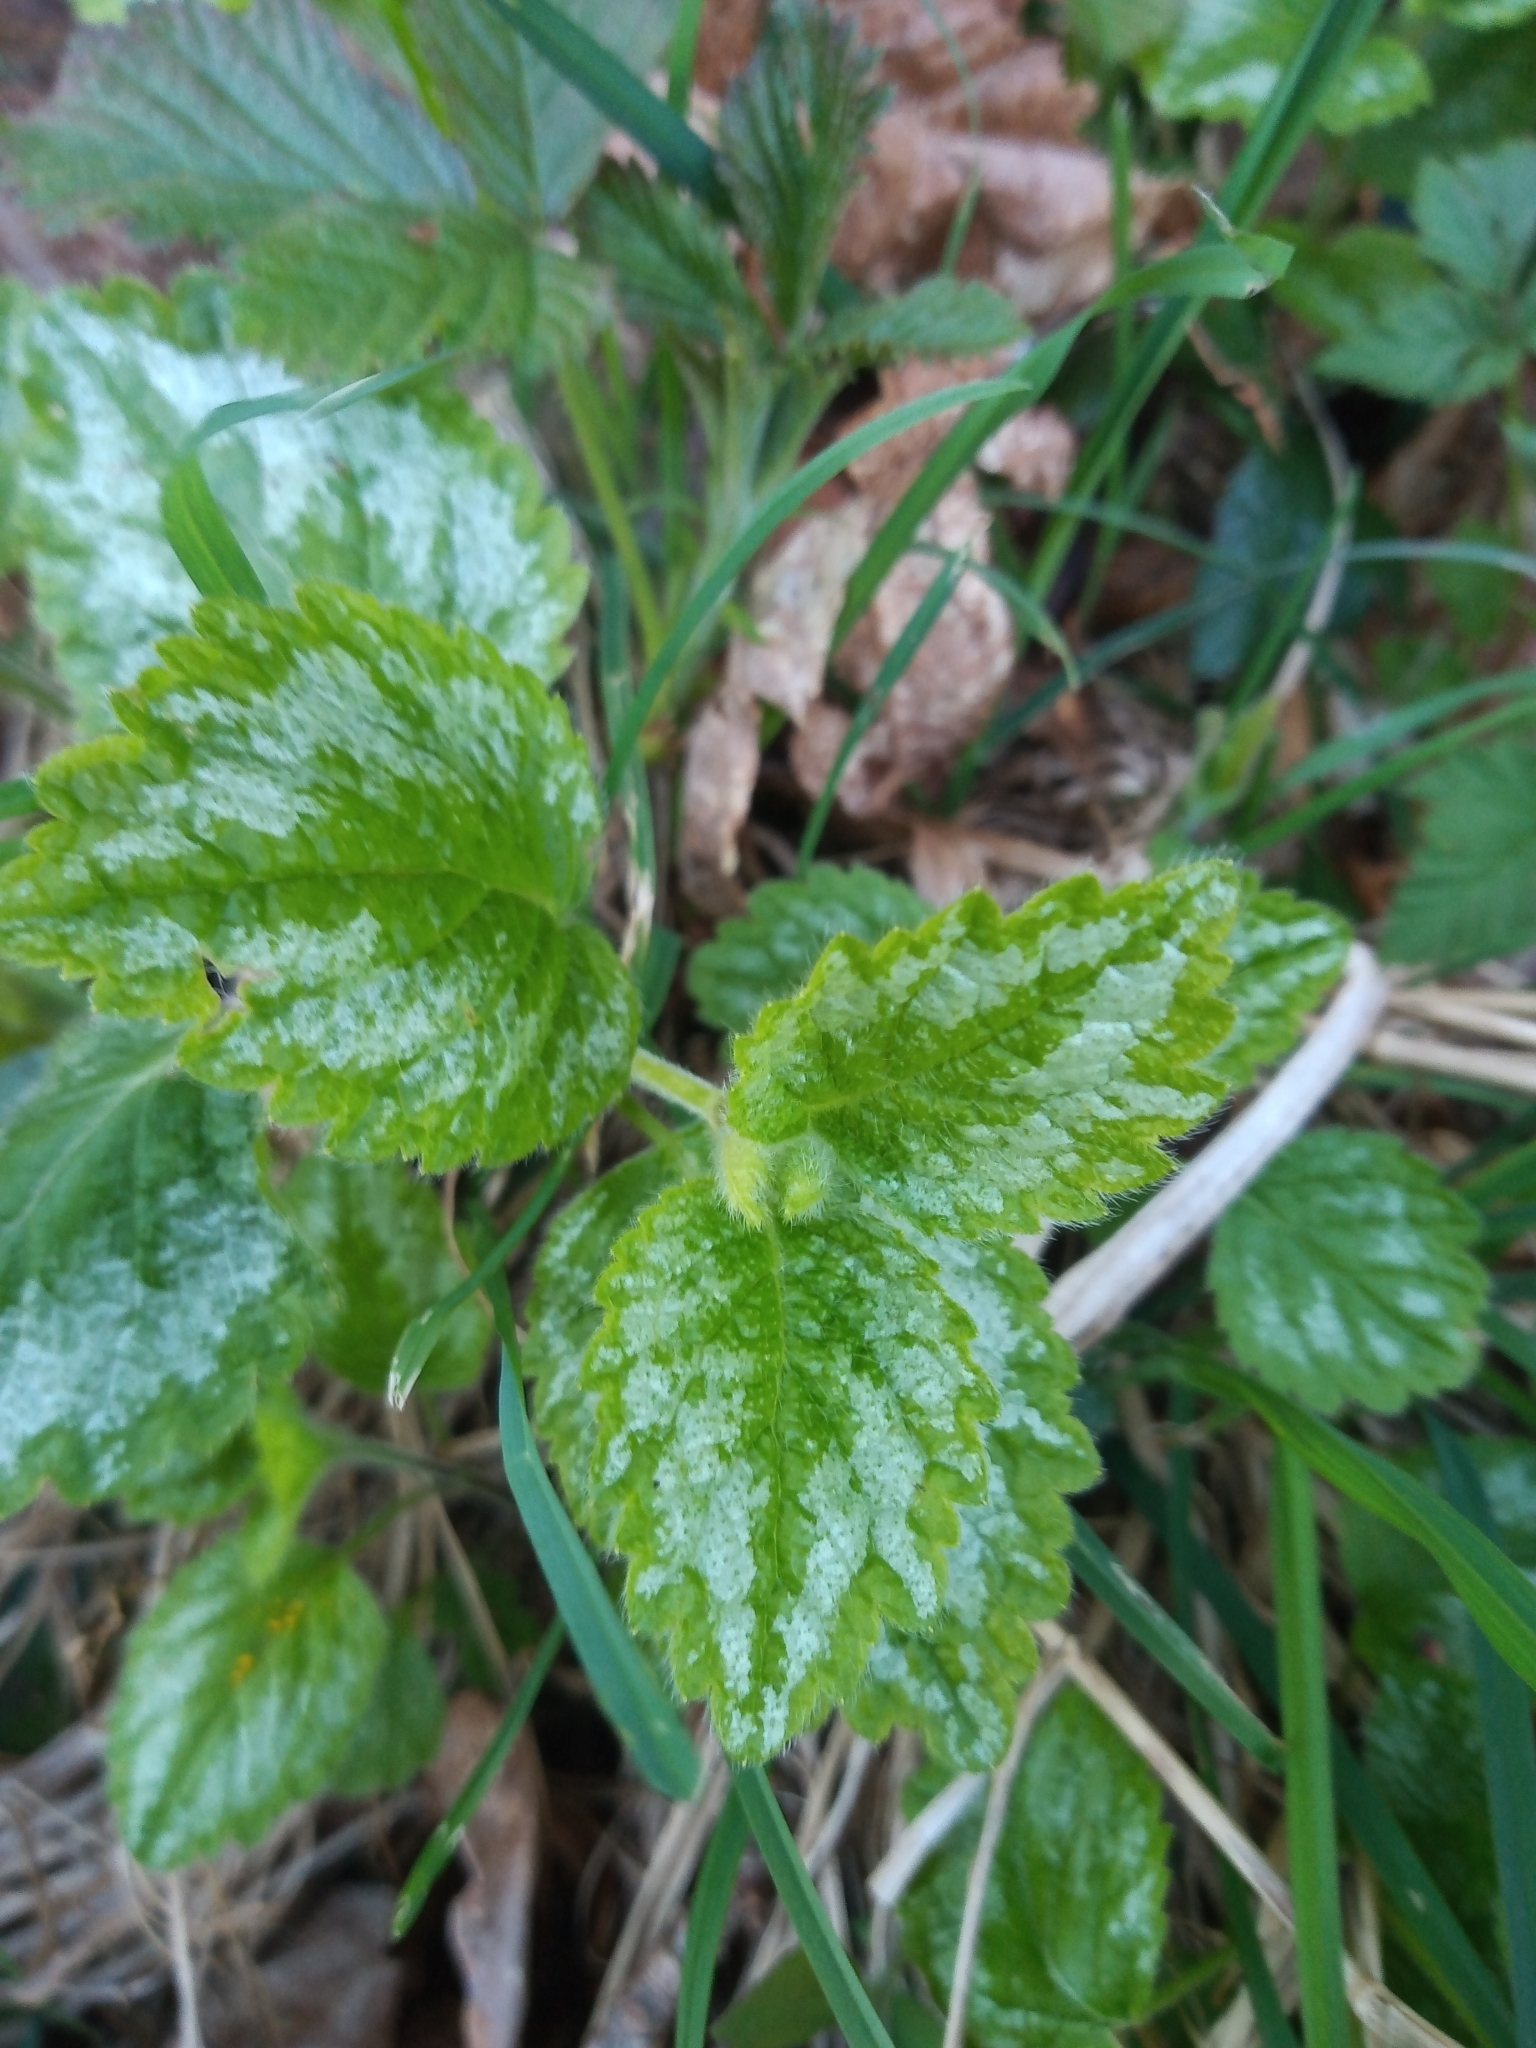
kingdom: Plantae
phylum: Tracheophyta
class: Magnoliopsida
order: Lamiales
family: Lamiaceae
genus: Lamium
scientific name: Lamium galeobdolon
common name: Yellow archangel
